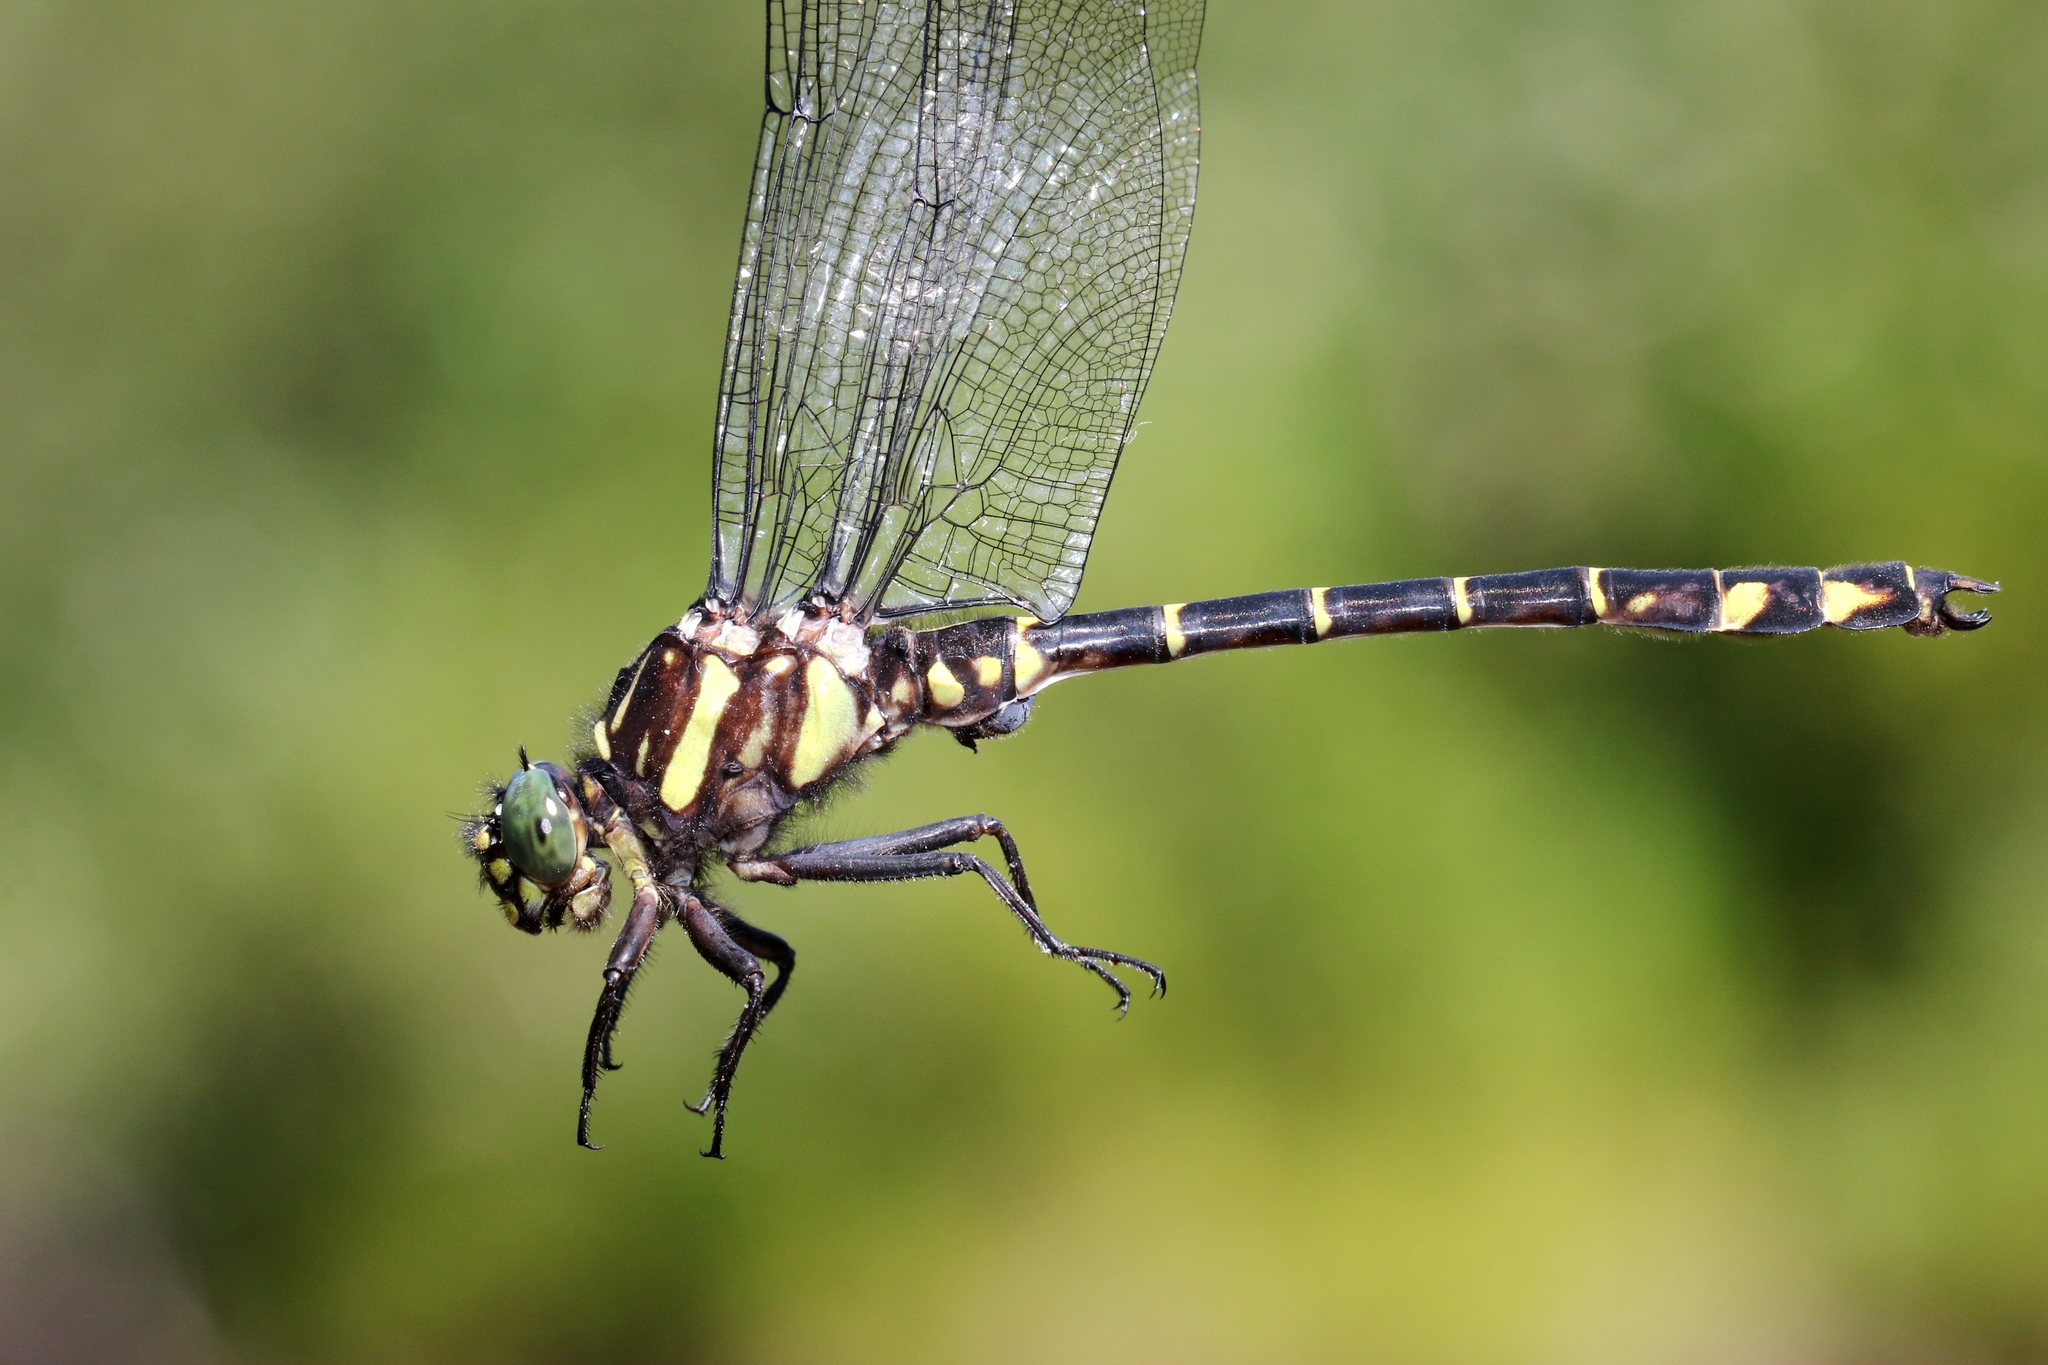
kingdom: Animalia
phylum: Arthropoda
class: Insecta
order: Odonata
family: Gomphidae
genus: Stylurus
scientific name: Stylurus scudderi
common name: Zebra clubtail
